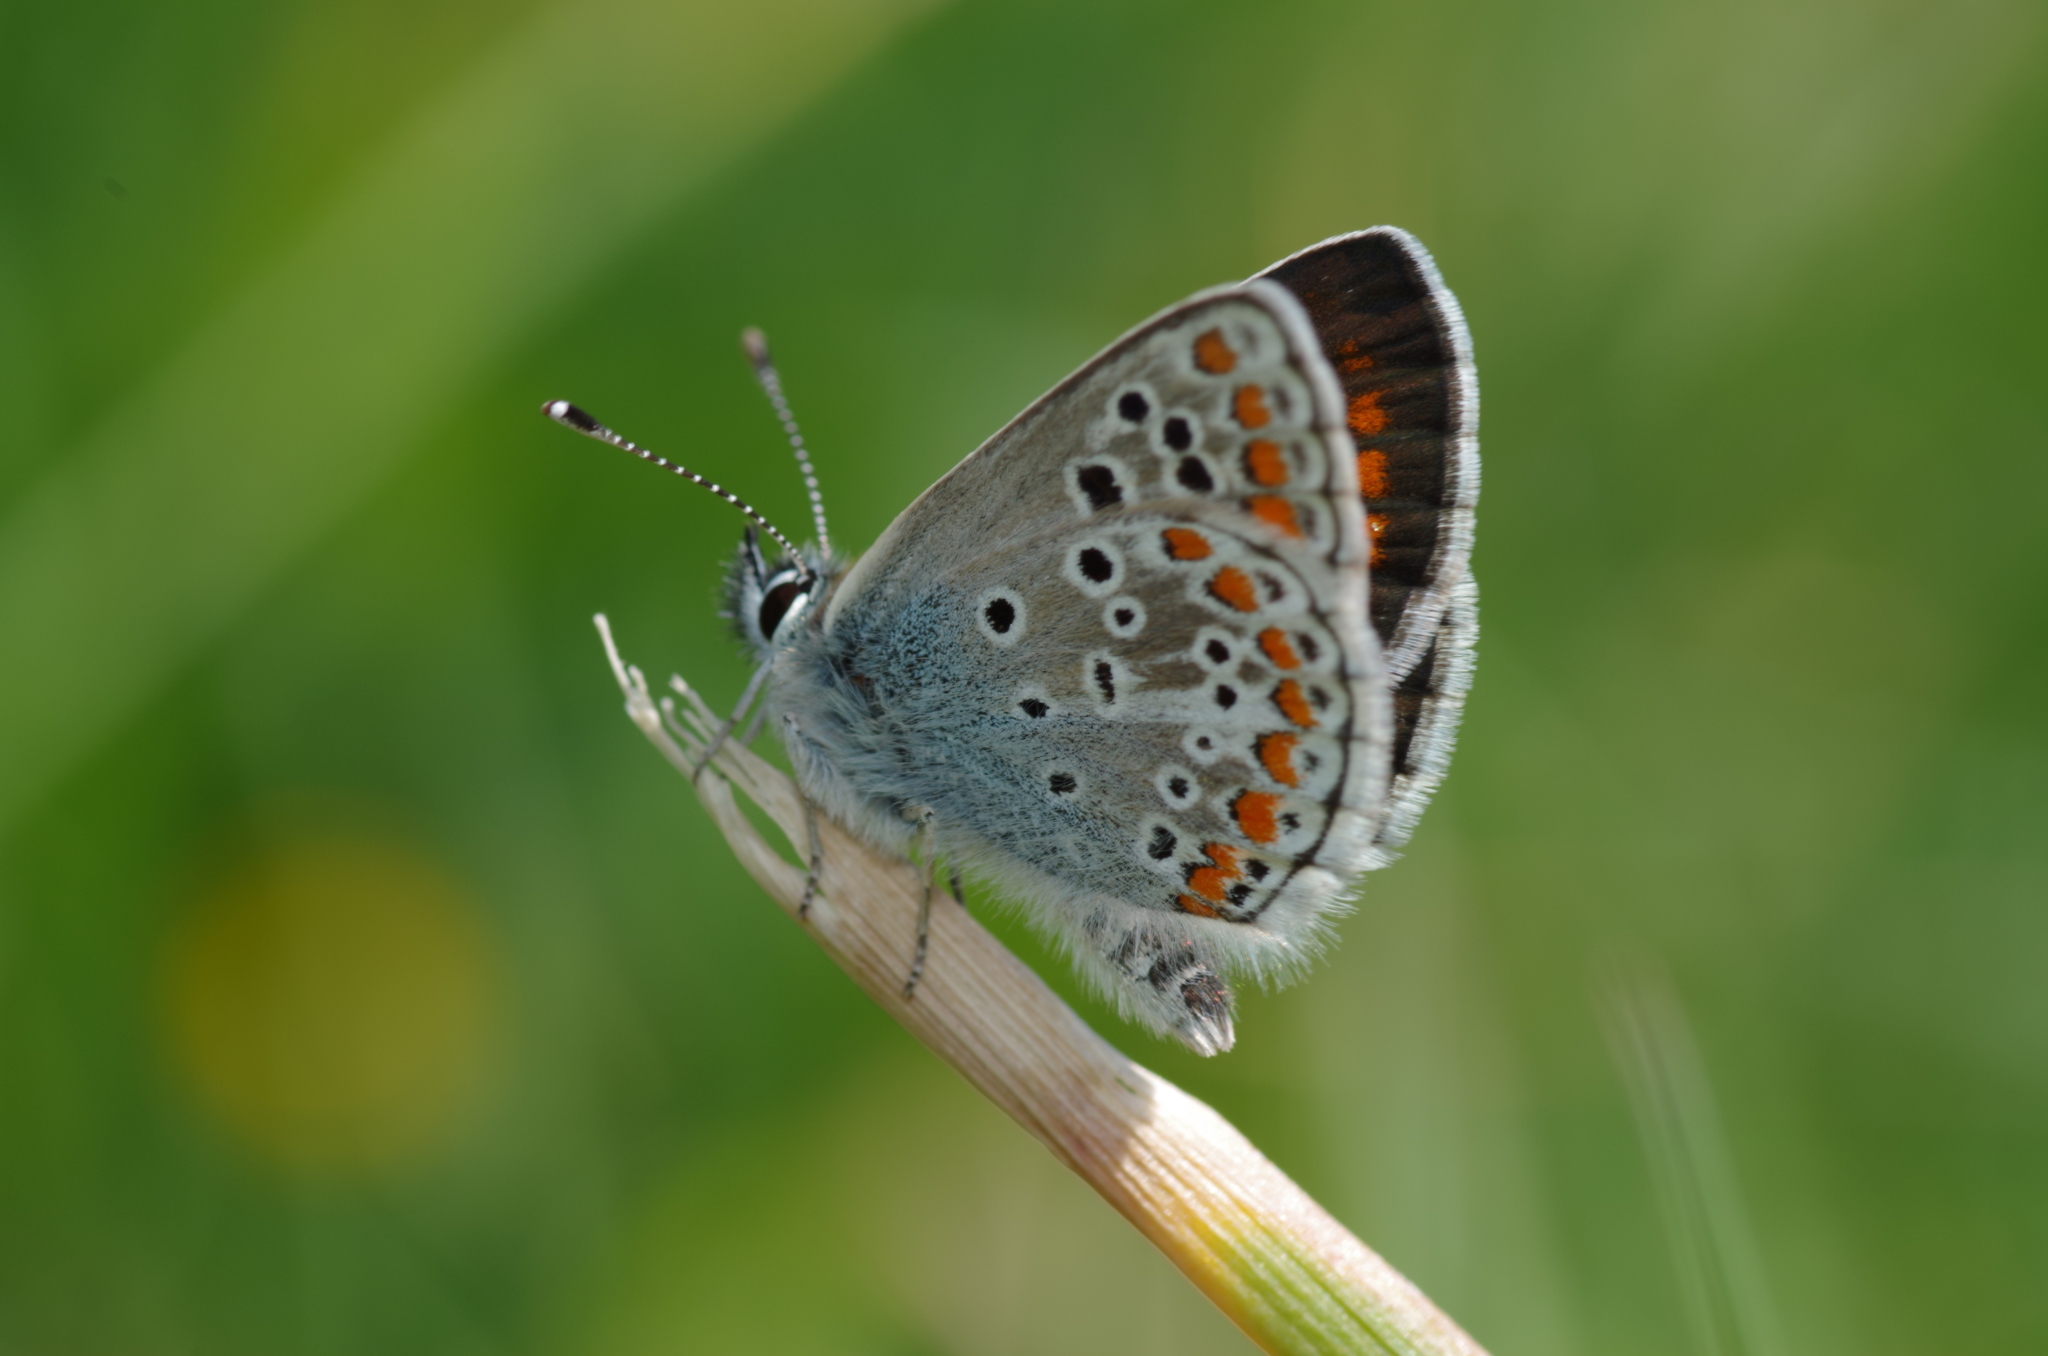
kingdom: Animalia
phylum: Arthropoda
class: Insecta
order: Lepidoptera
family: Lycaenidae
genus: Aricia
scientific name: Aricia agestis
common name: Brown argus
